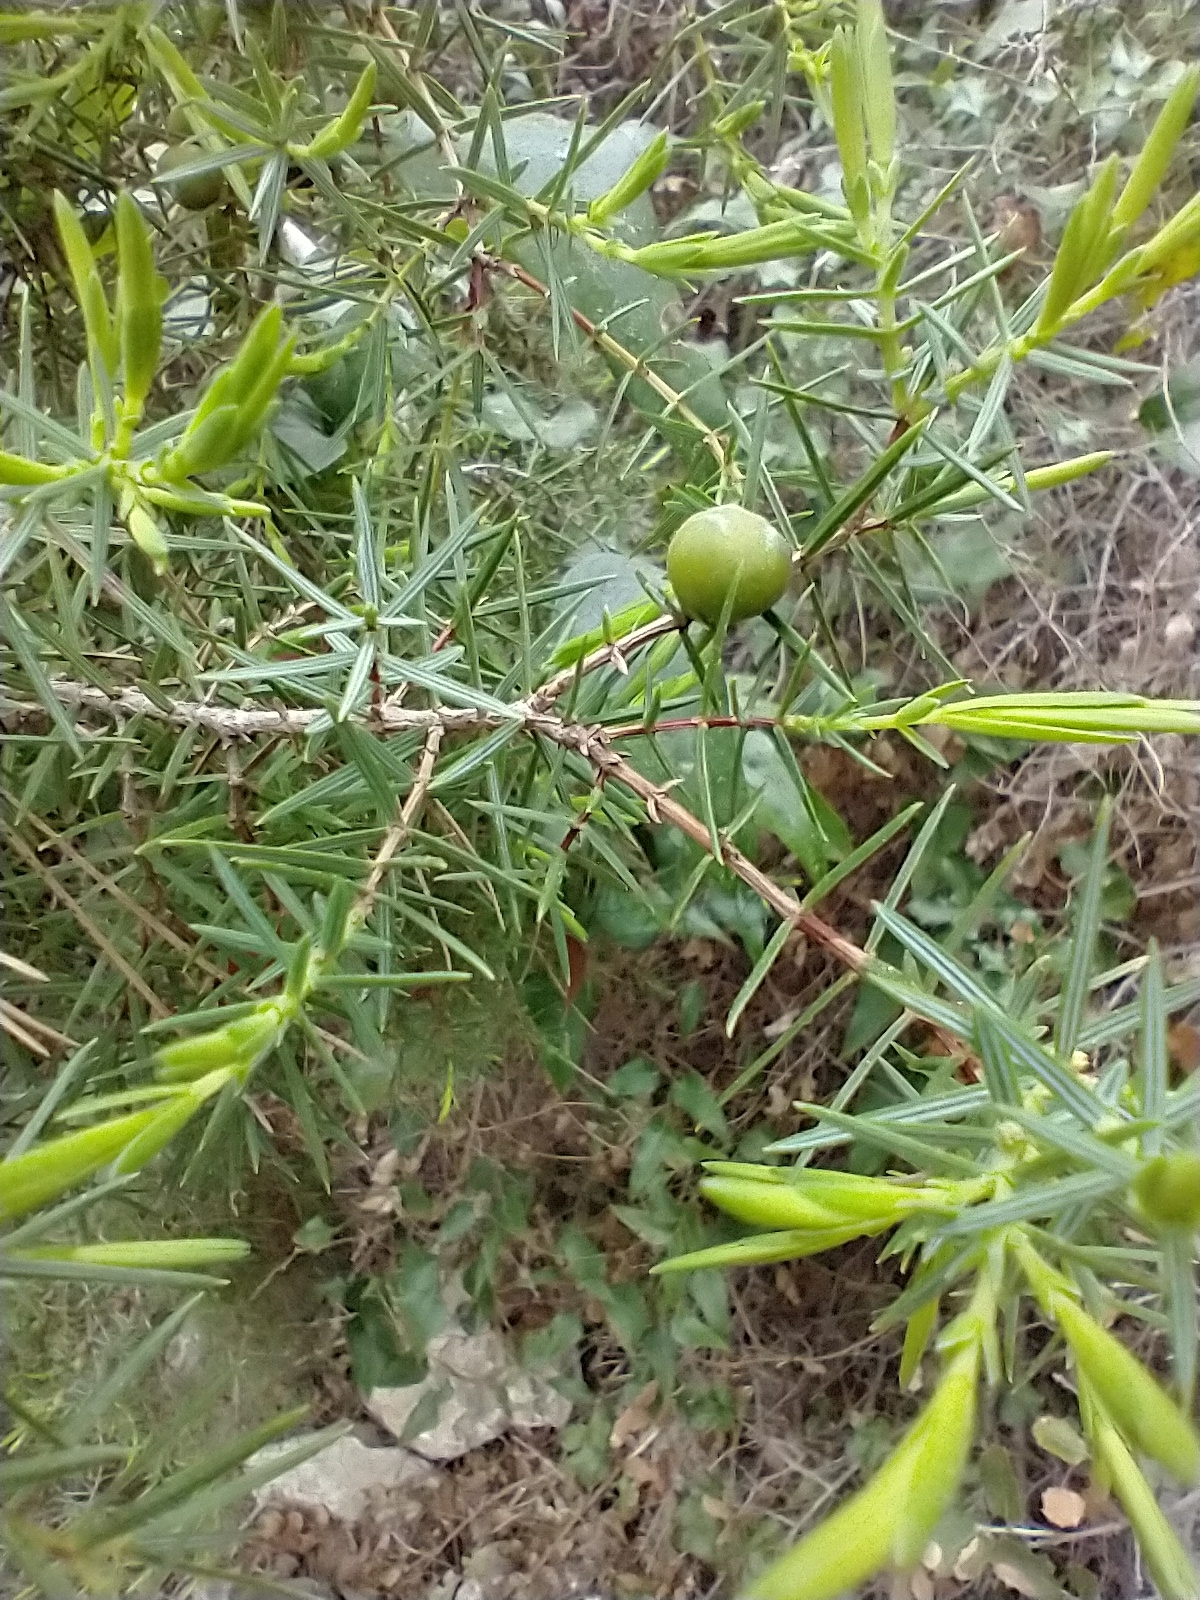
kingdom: Plantae
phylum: Tracheophyta
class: Pinopsida
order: Pinales
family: Cupressaceae
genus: Juniperus
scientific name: Juniperus oxycedrus
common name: Prickly juniper
